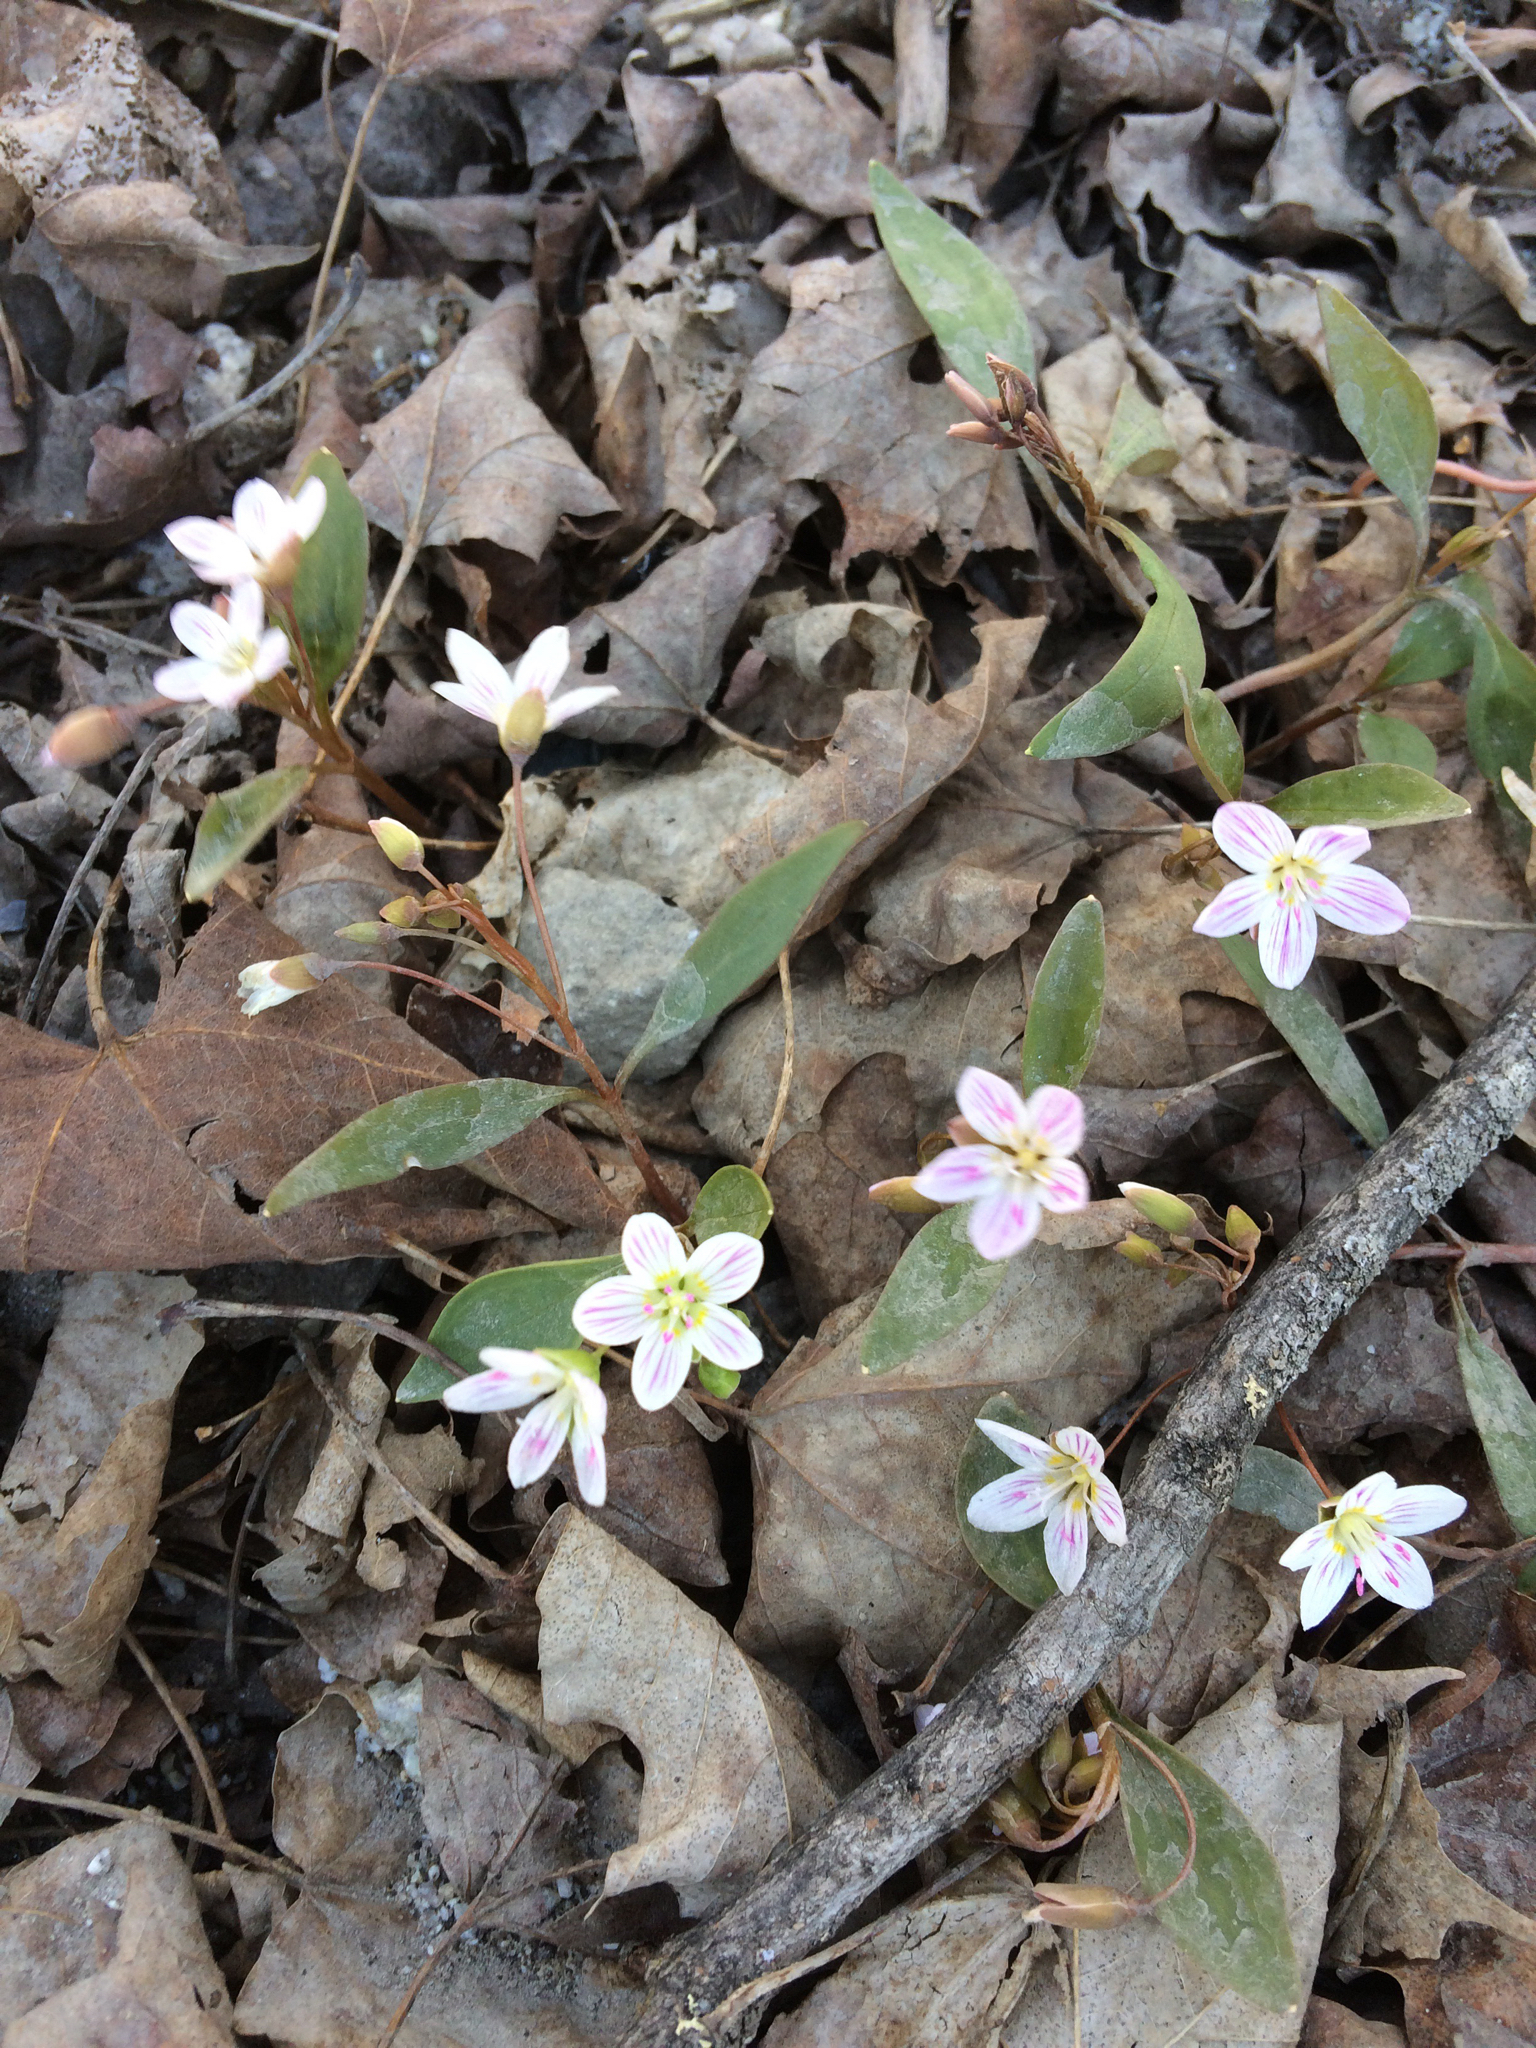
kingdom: Plantae
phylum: Tracheophyta
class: Magnoliopsida
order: Caryophyllales
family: Montiaceae
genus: Claytonia
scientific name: Claytonia caroliniana
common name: Carolina spring beauty
